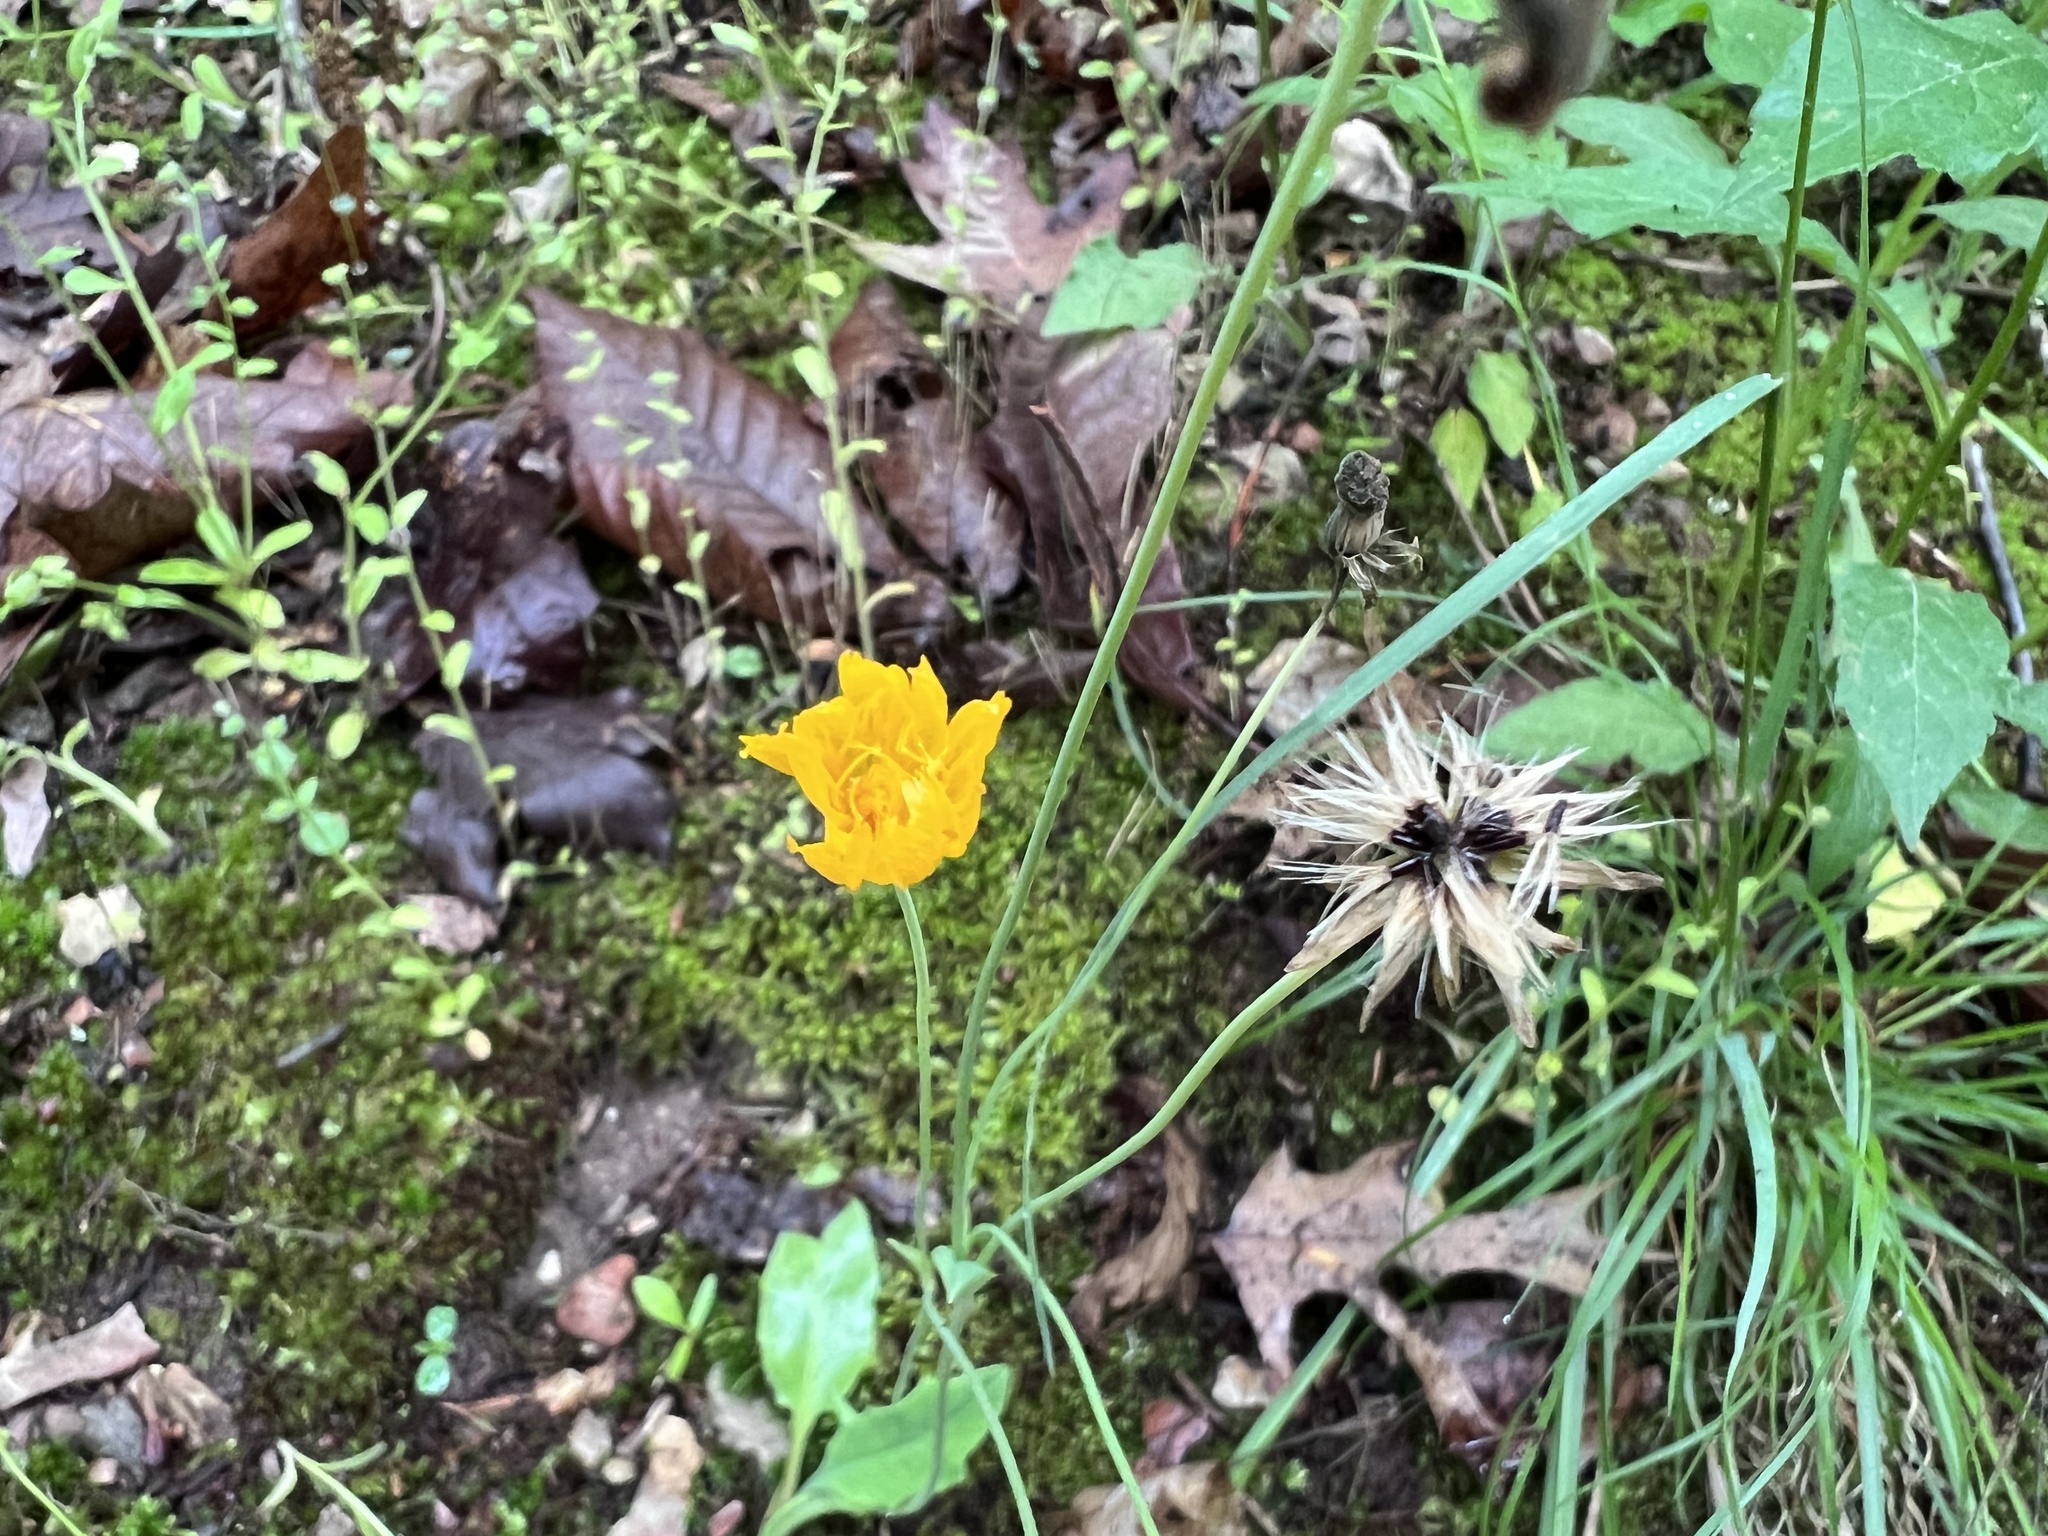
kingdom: Plantae
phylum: Tracheophyta
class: Magnoliopsida
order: Asterales
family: Asteraceae
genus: Krigia
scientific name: Krigia biflora
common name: Orange dwarf-dandelion
